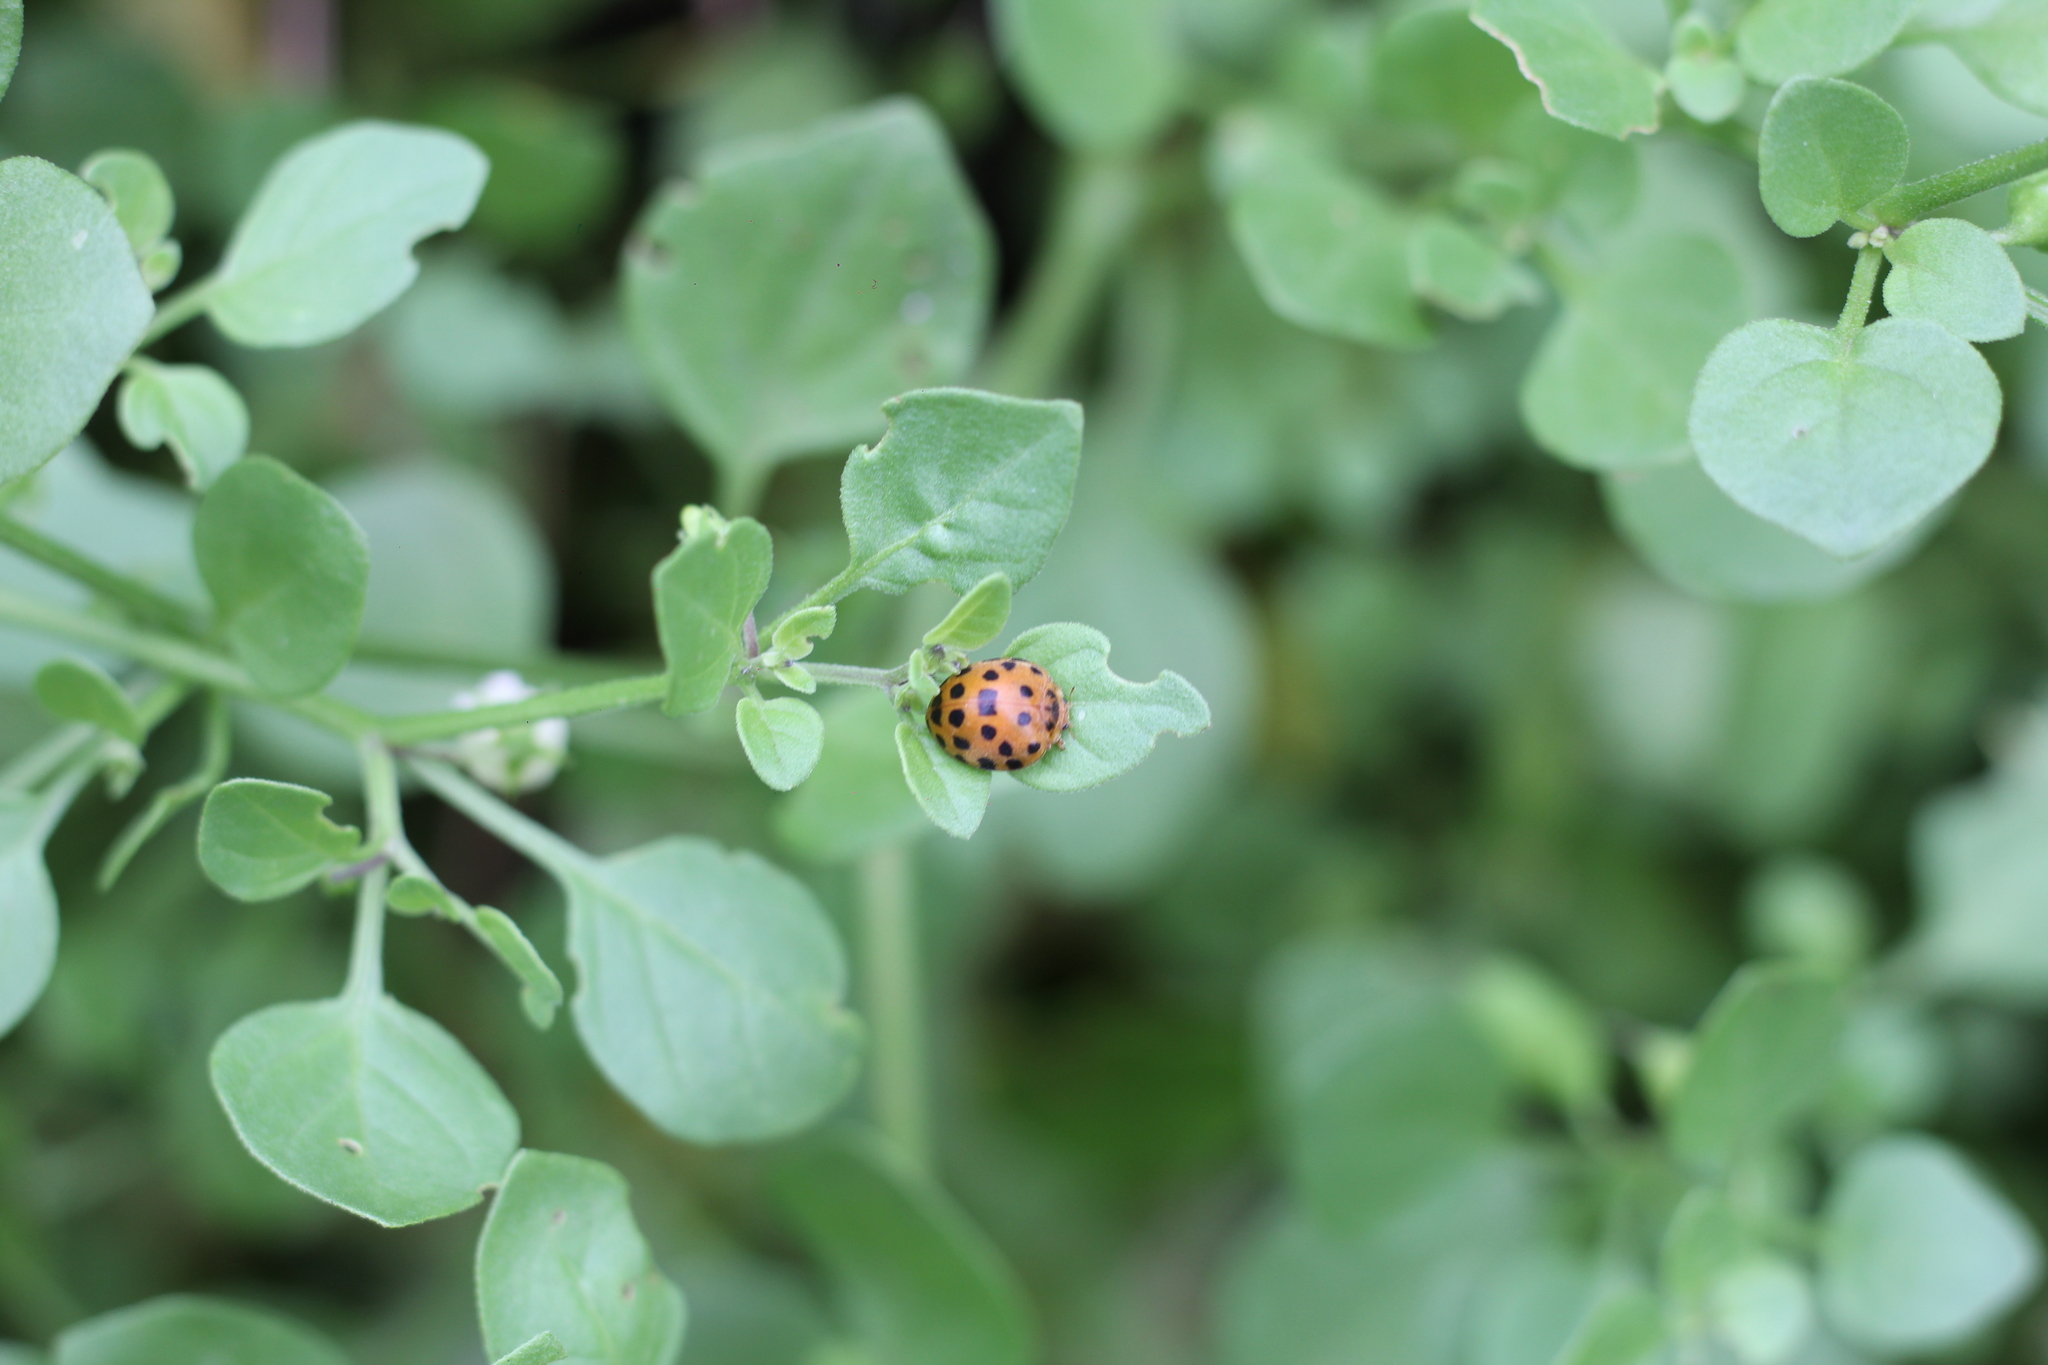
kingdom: Animalia
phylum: Arthropoda
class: Insecta
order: Coleoptera
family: Coccinellidae
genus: Henosepilachna
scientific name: Henosepilachna vigintioctopunctata
